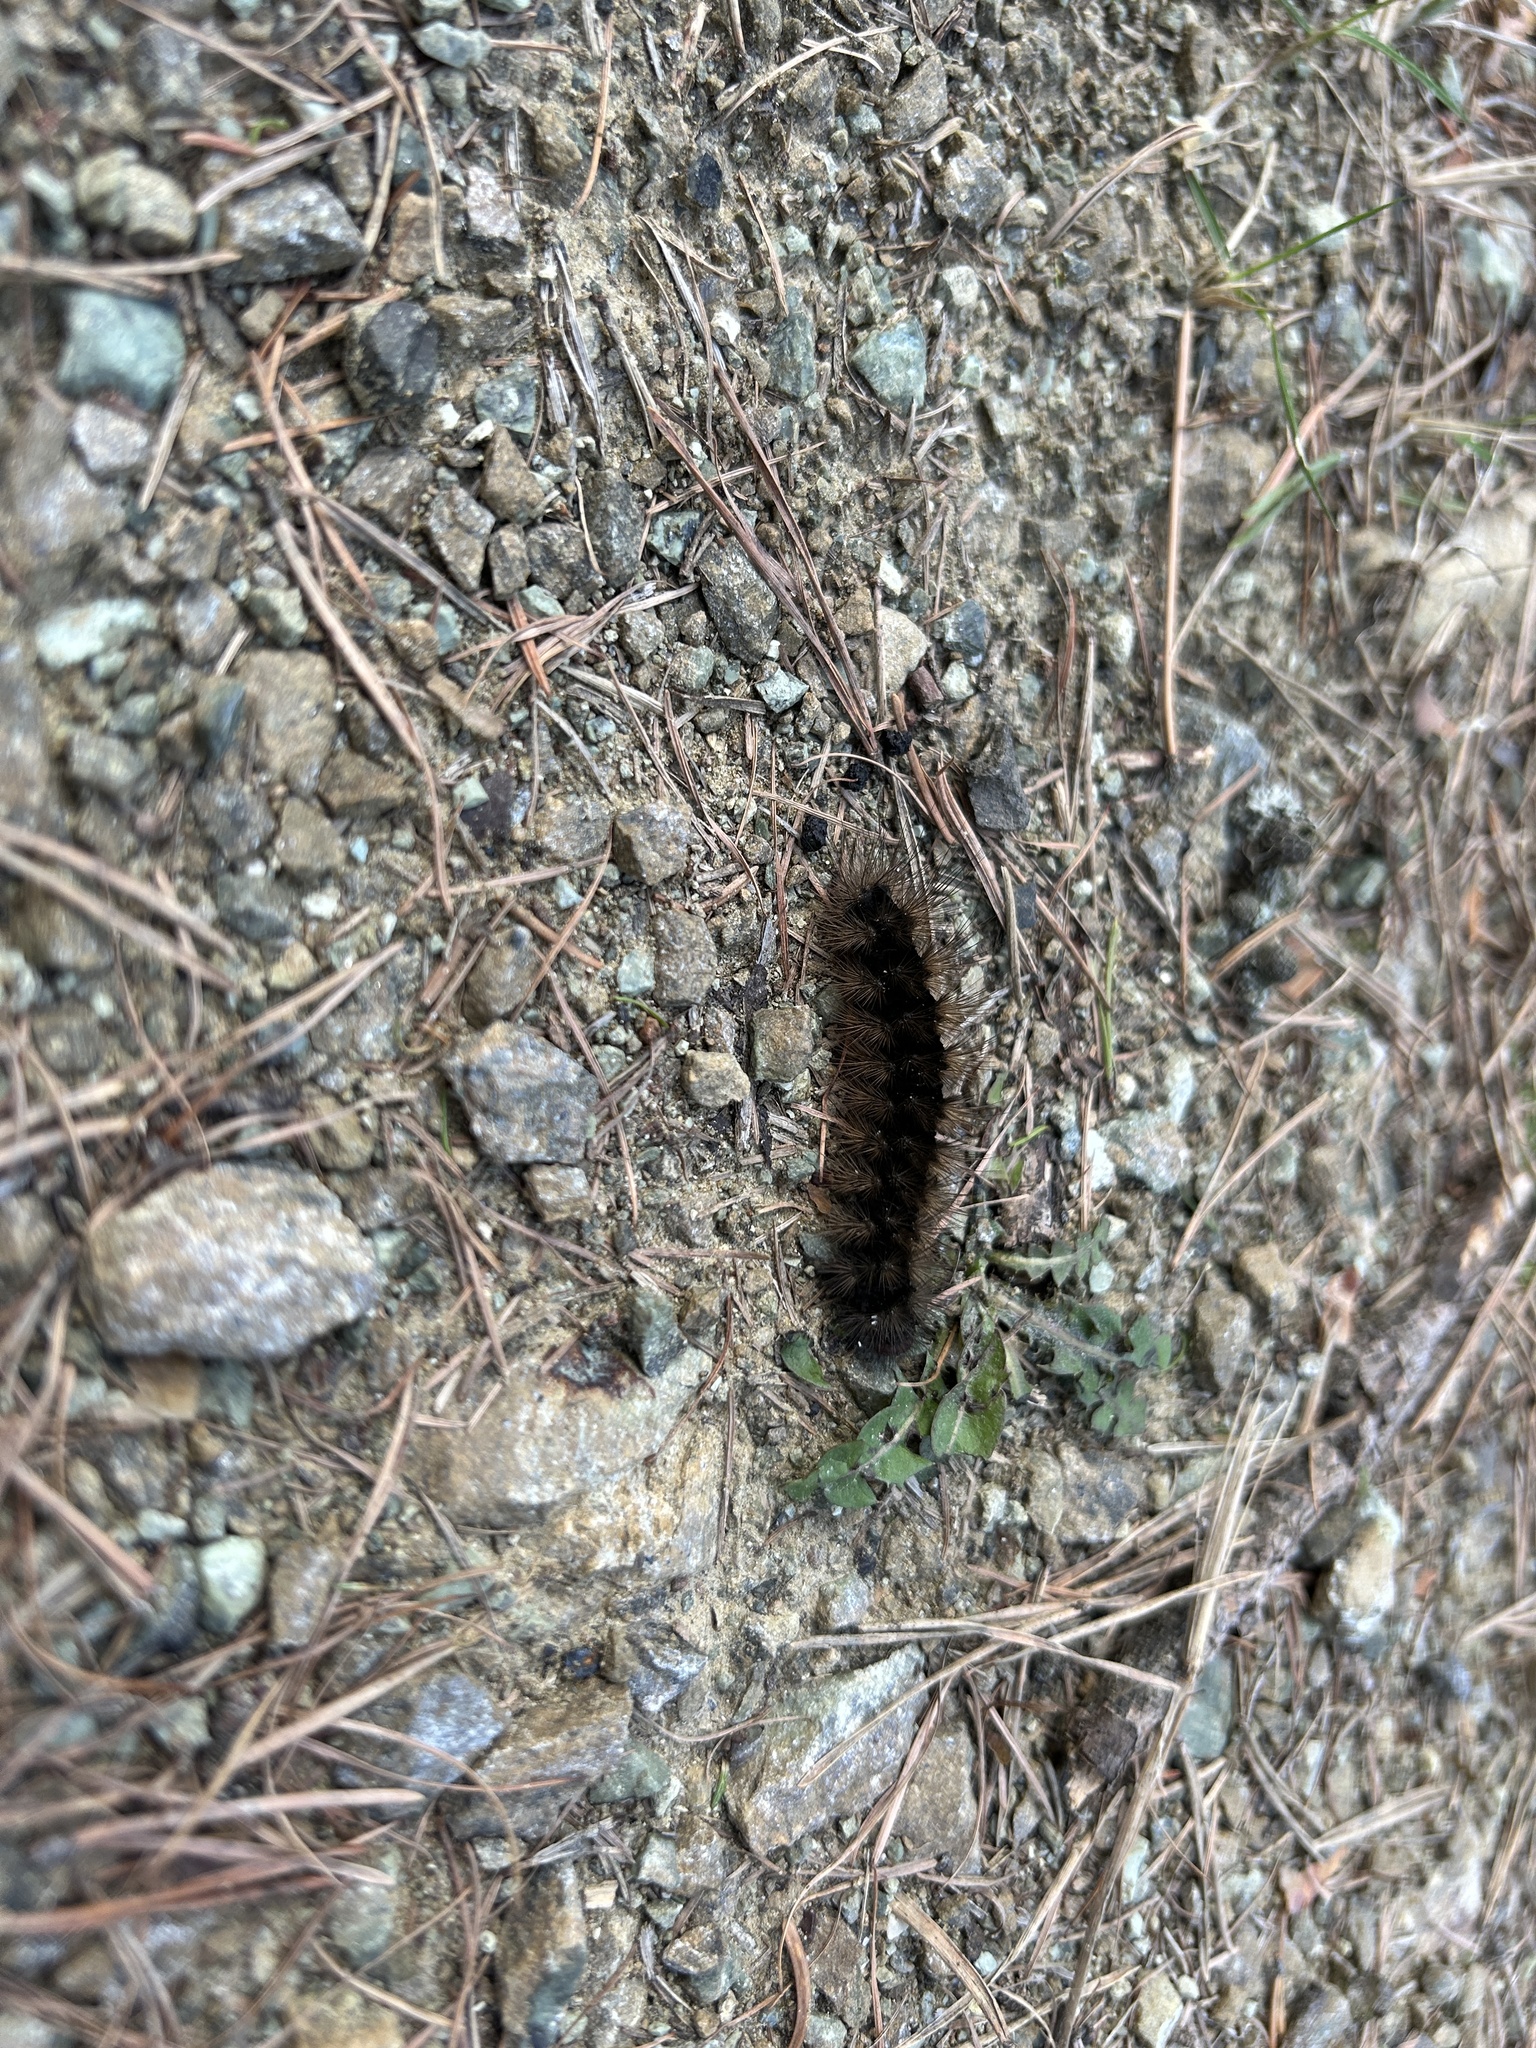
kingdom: Animalia
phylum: Arthropoda
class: Insecta
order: Lepidoptera
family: Erebidae
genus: Epicallia
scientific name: Epicallia villica
